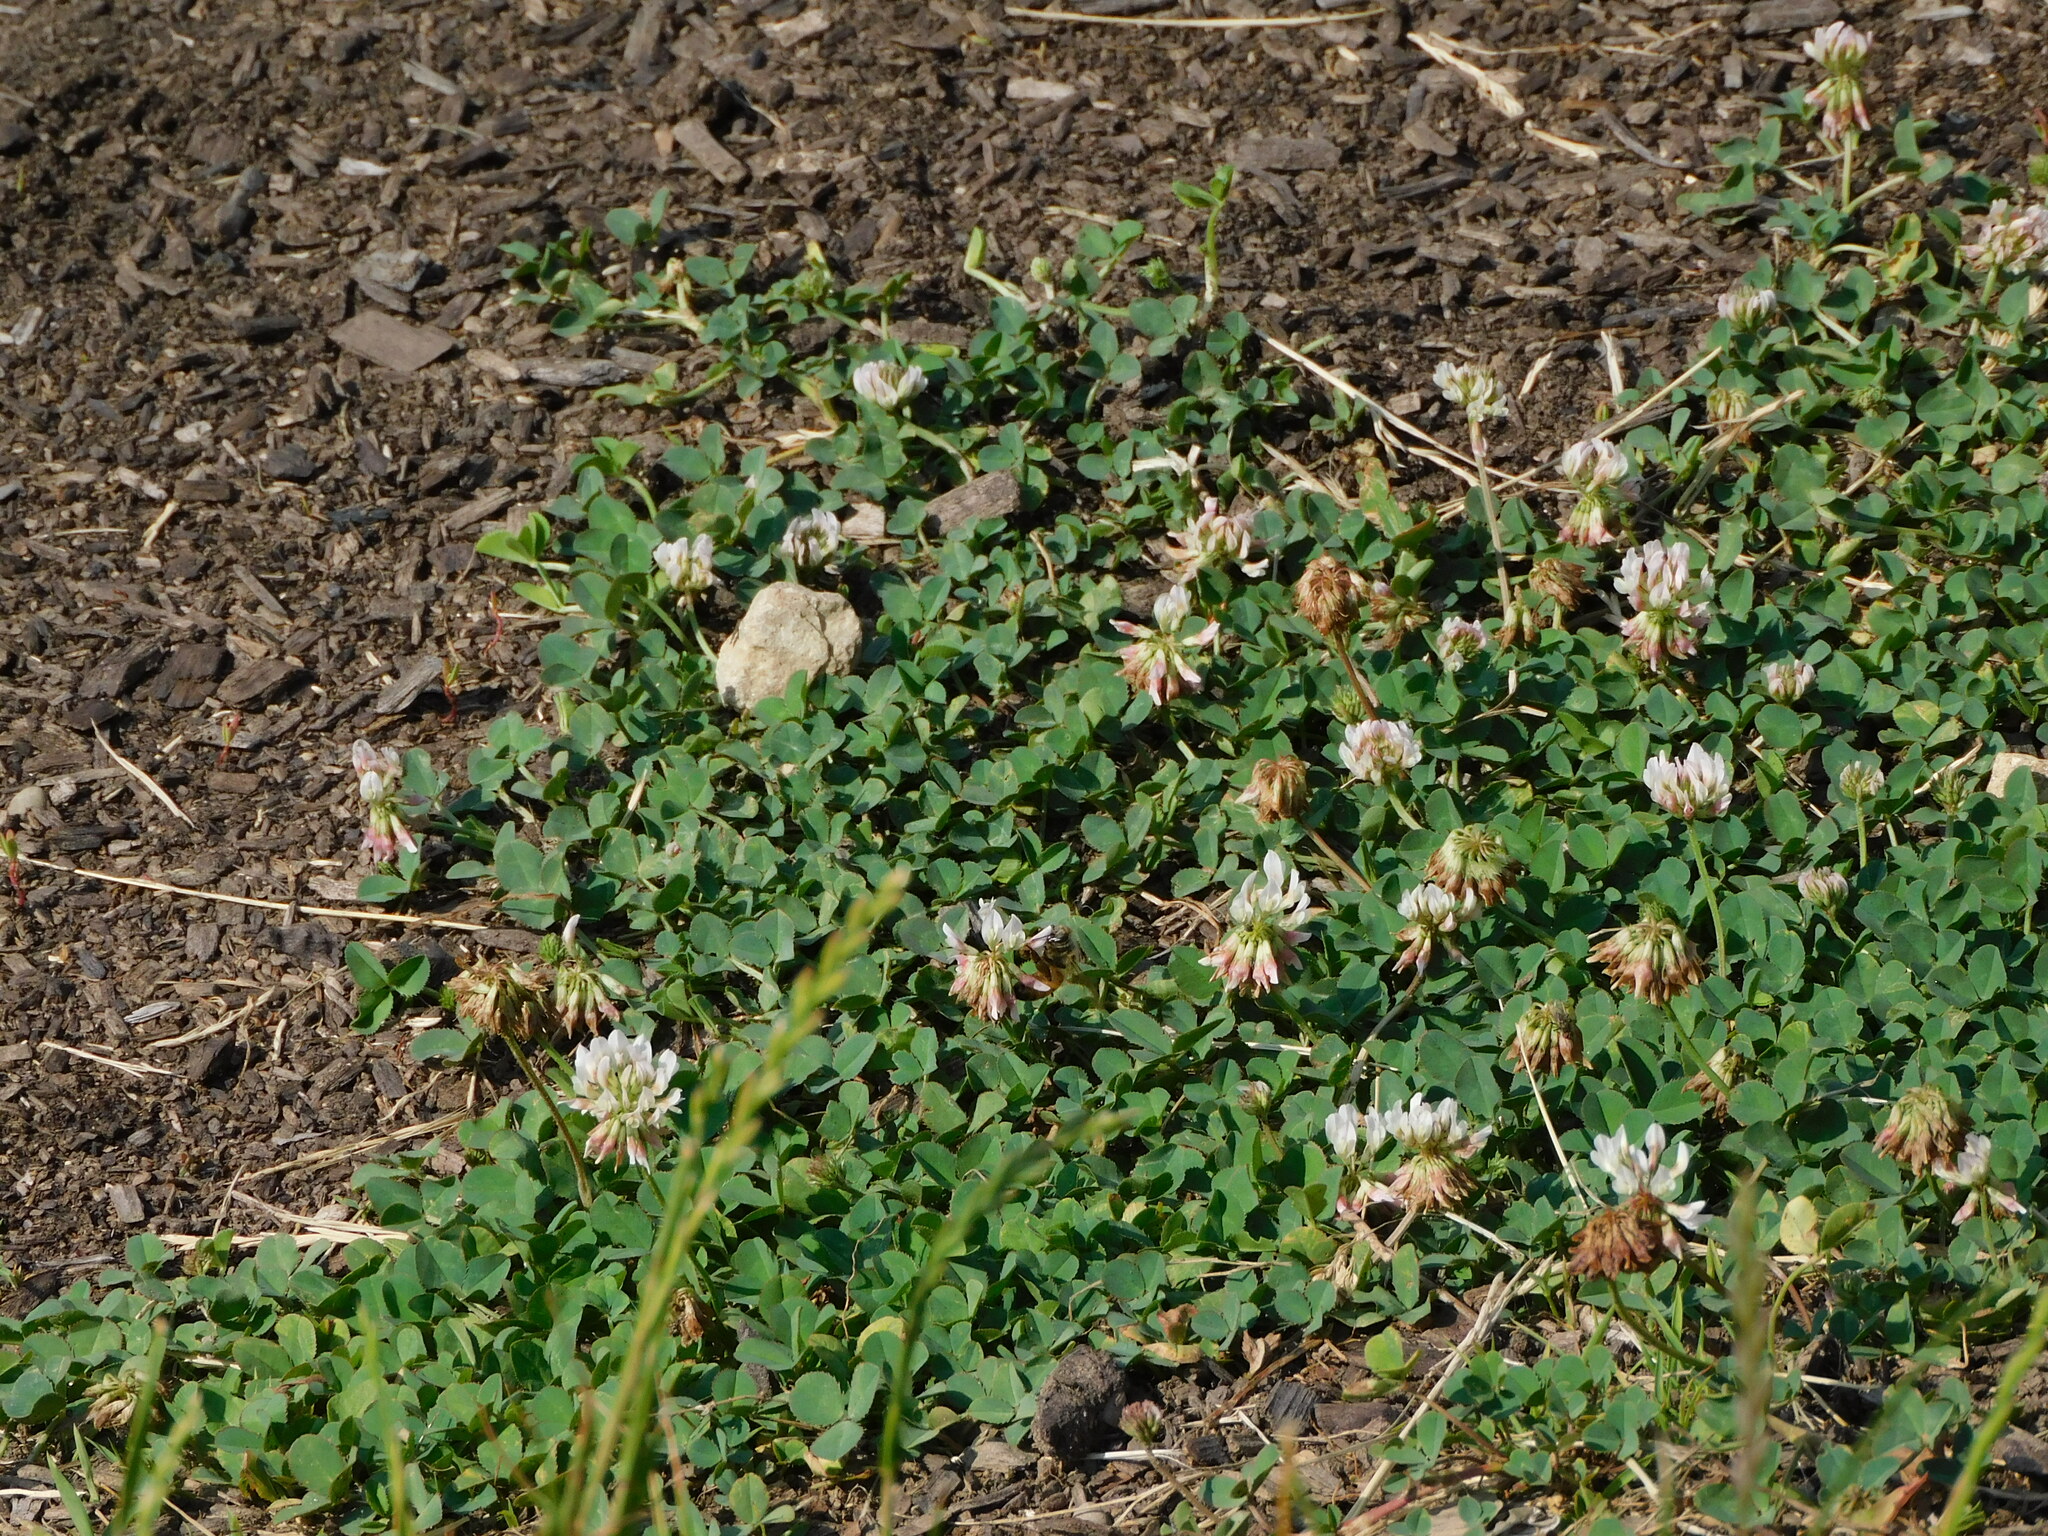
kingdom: Plantae
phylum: Tracheophyta
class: Magnoliopsida
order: Fabales
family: Fabaceae
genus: Trifolium
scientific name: Trifolium repens
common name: White clover
